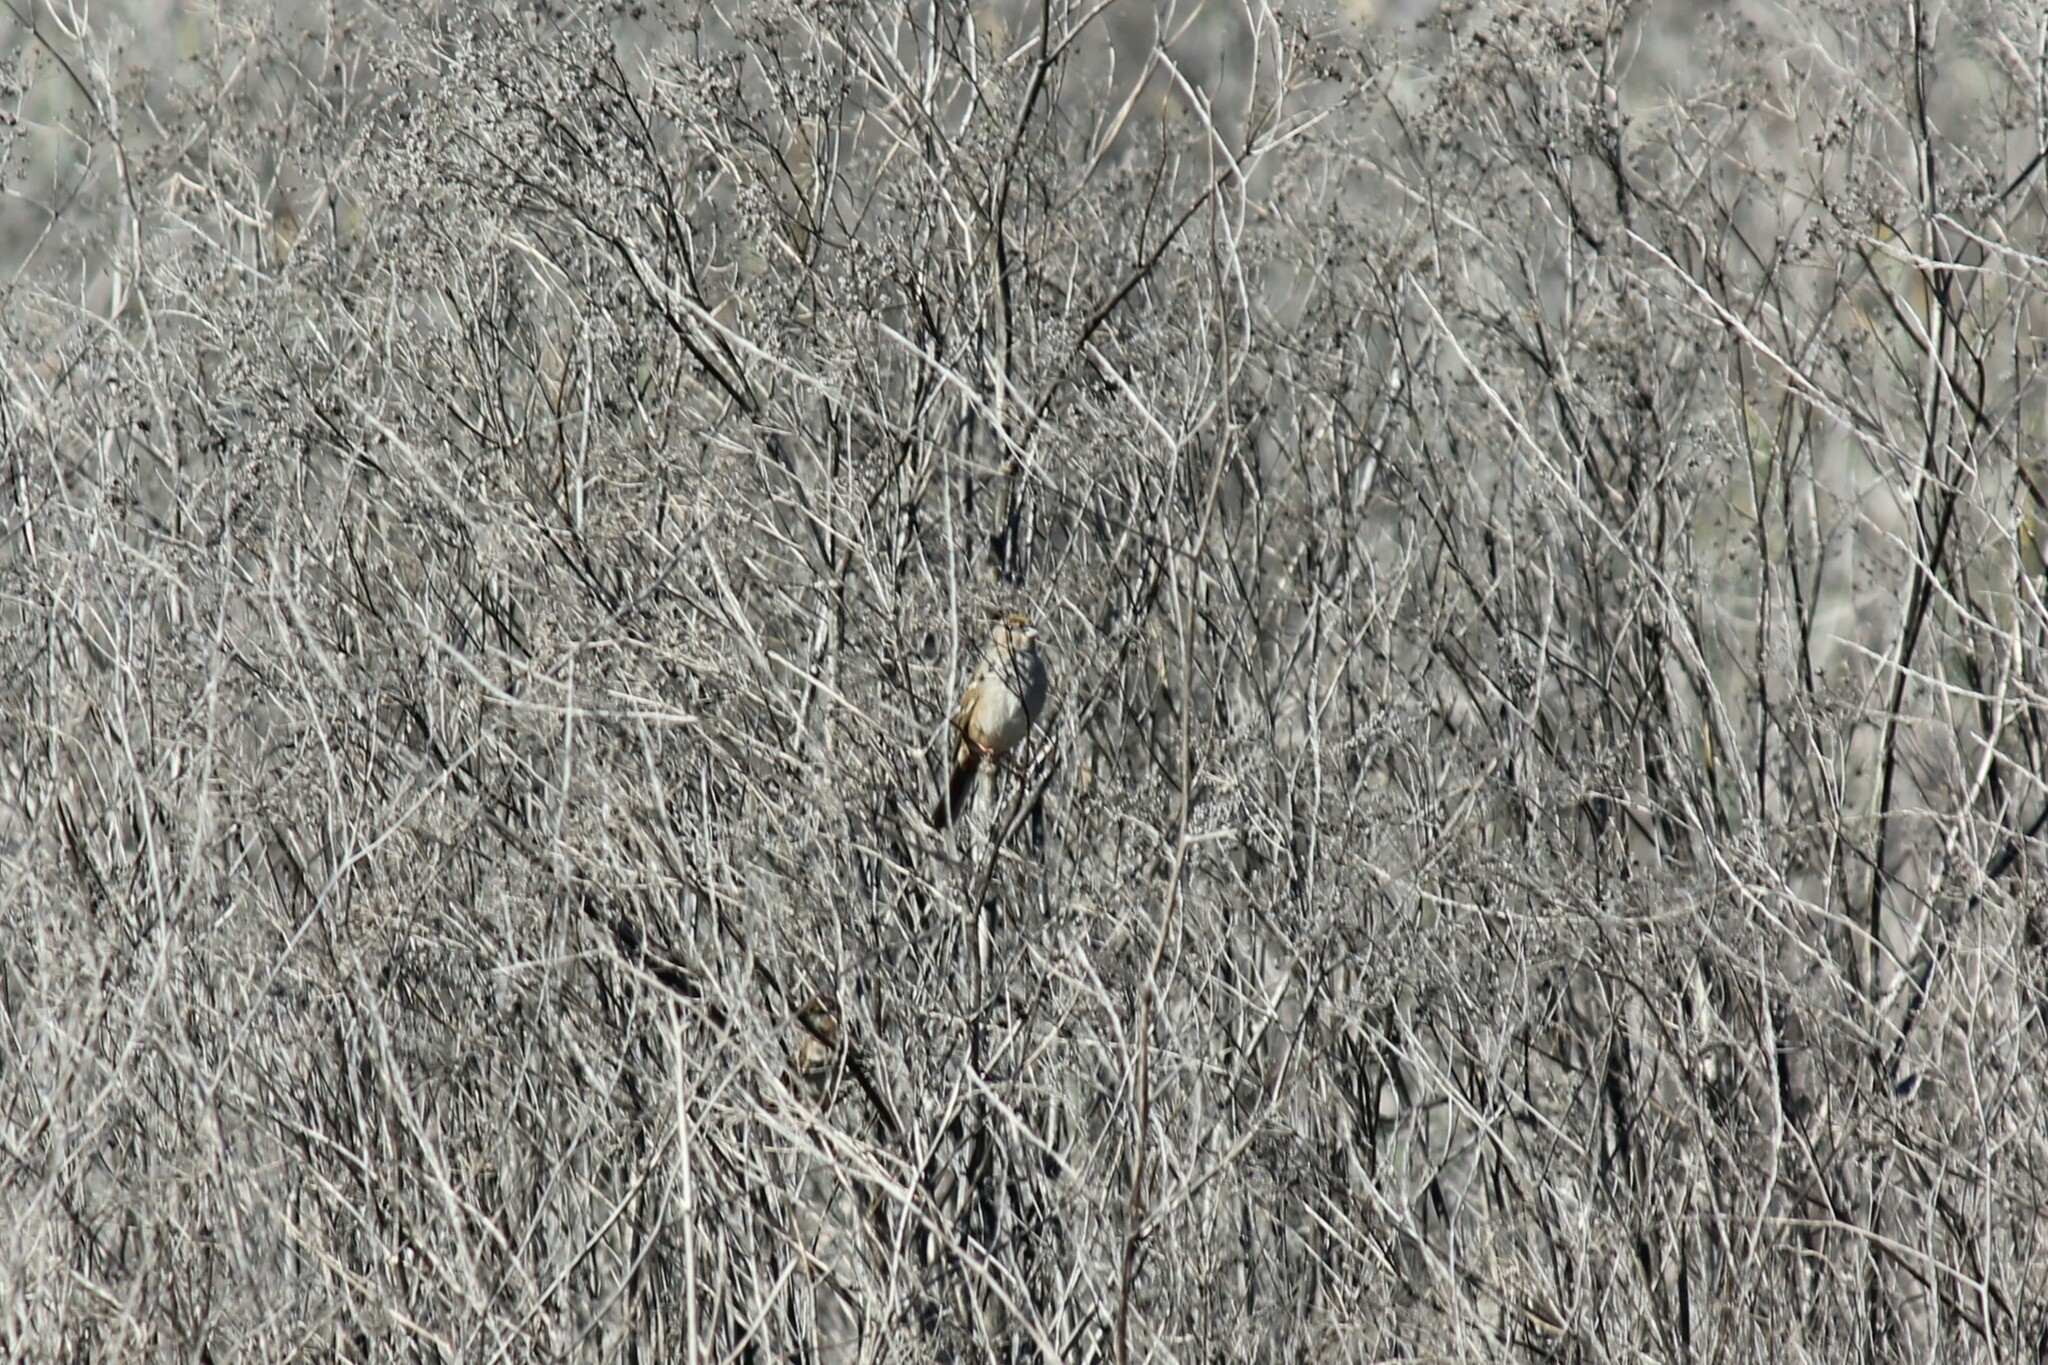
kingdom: Animalia
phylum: Chordata
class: Aves
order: Passeriformes
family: Passerellidae
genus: Zonotrichia
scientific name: Zonotrichia atricapilla
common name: Golden-crowned sparrow
